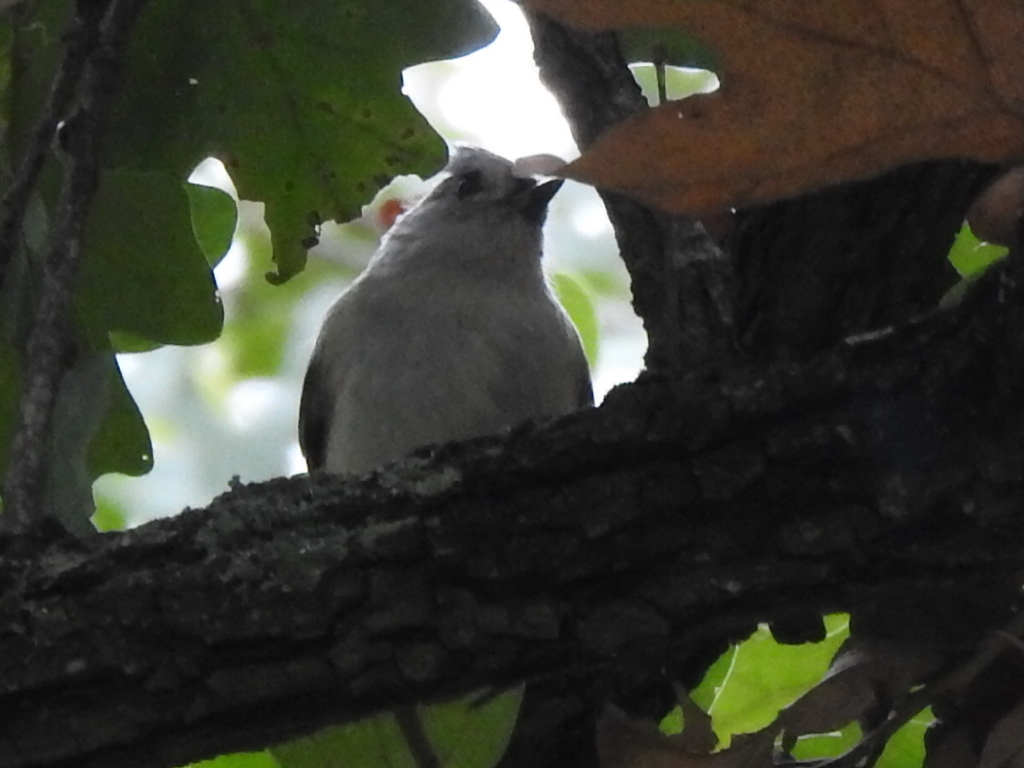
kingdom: Animalia
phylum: Chordata
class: Aves
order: Passeriformes
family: Paridae
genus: Baeolophus
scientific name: Baeolophus bicolor
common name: Tufted titmouse
